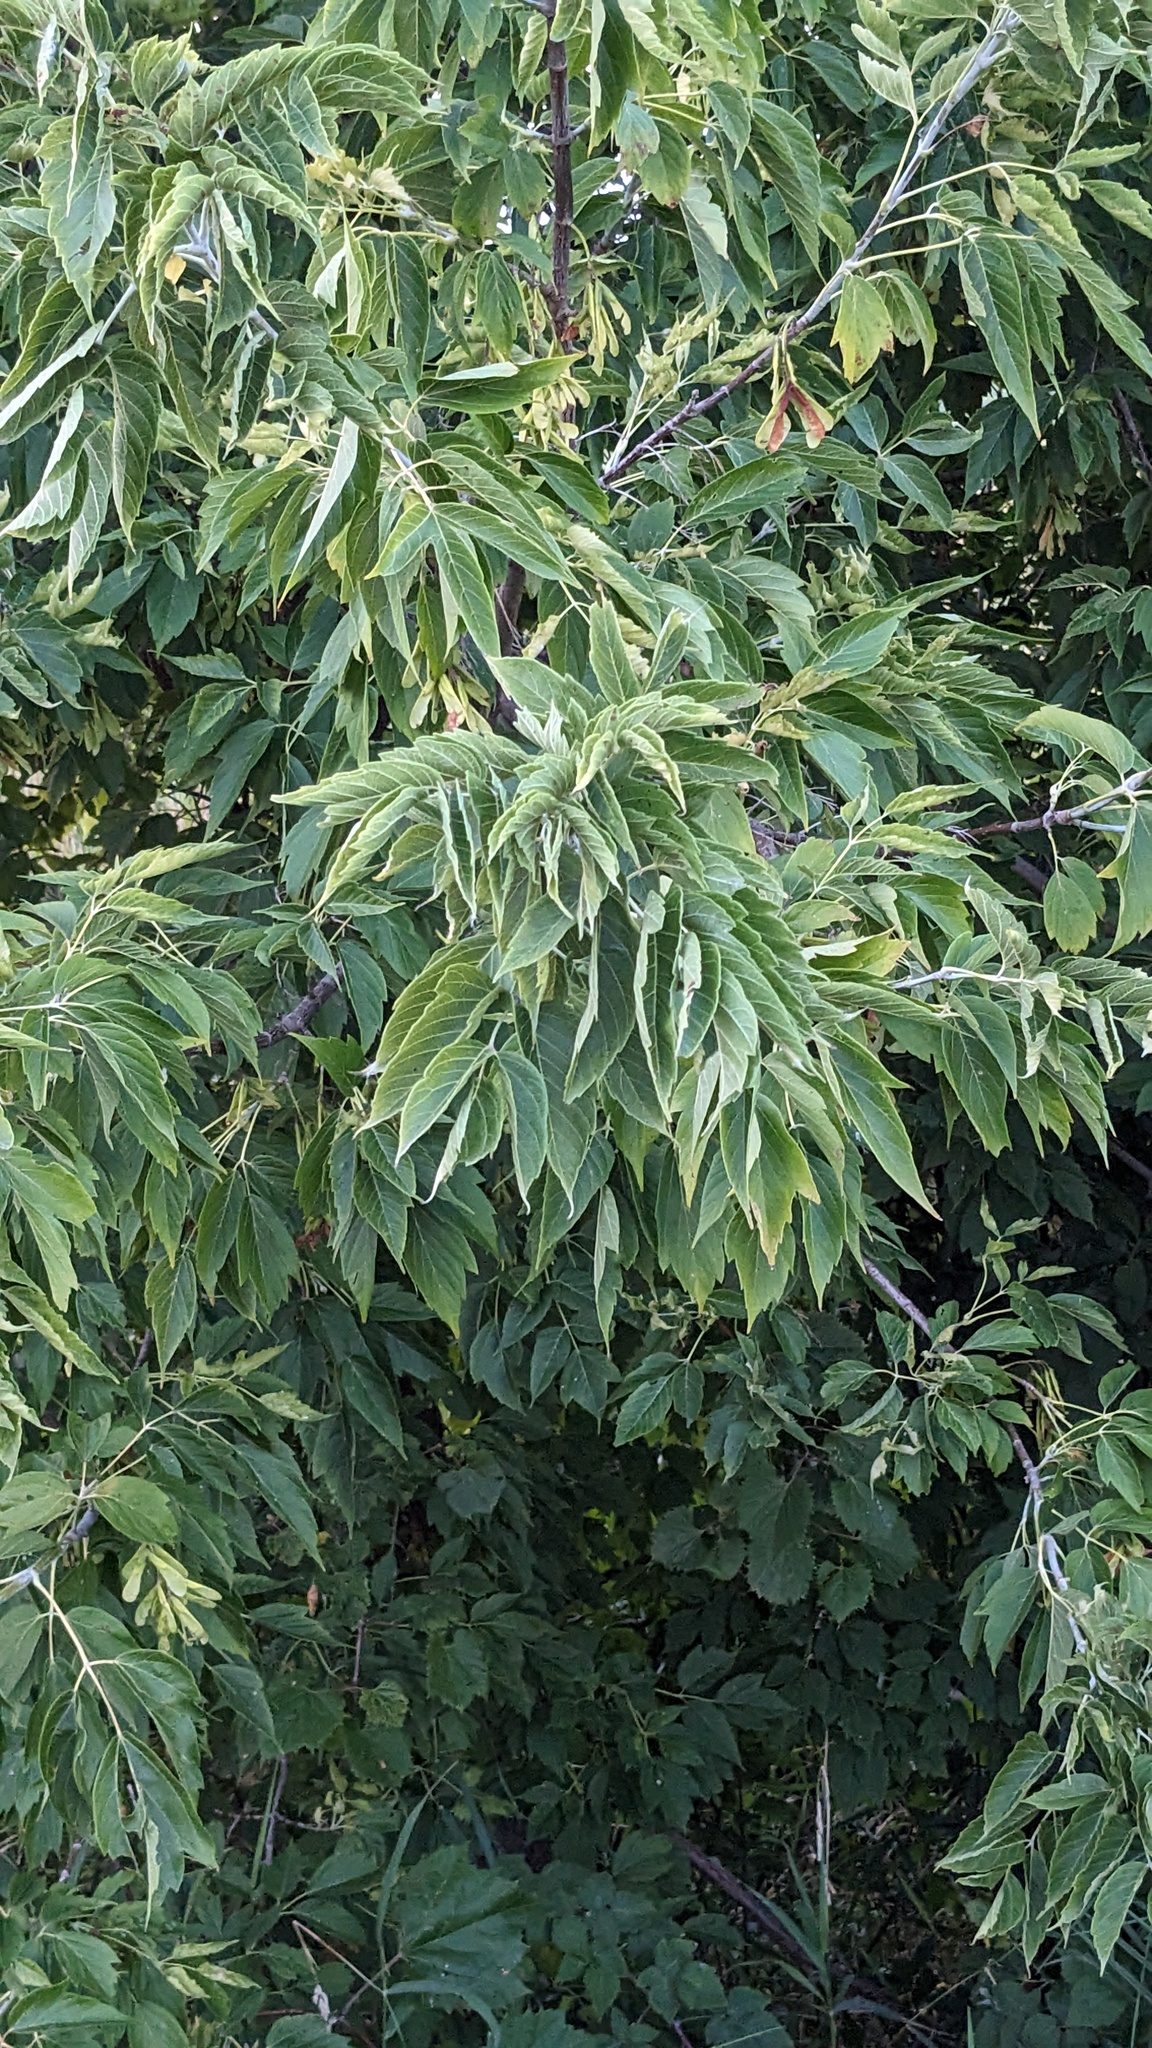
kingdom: Plantae
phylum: Tracheophyta
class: Magnoliopsida
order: Sapindales
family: Sapindaceae
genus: Acer
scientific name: Acer negundo
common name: Ashleaf maple
